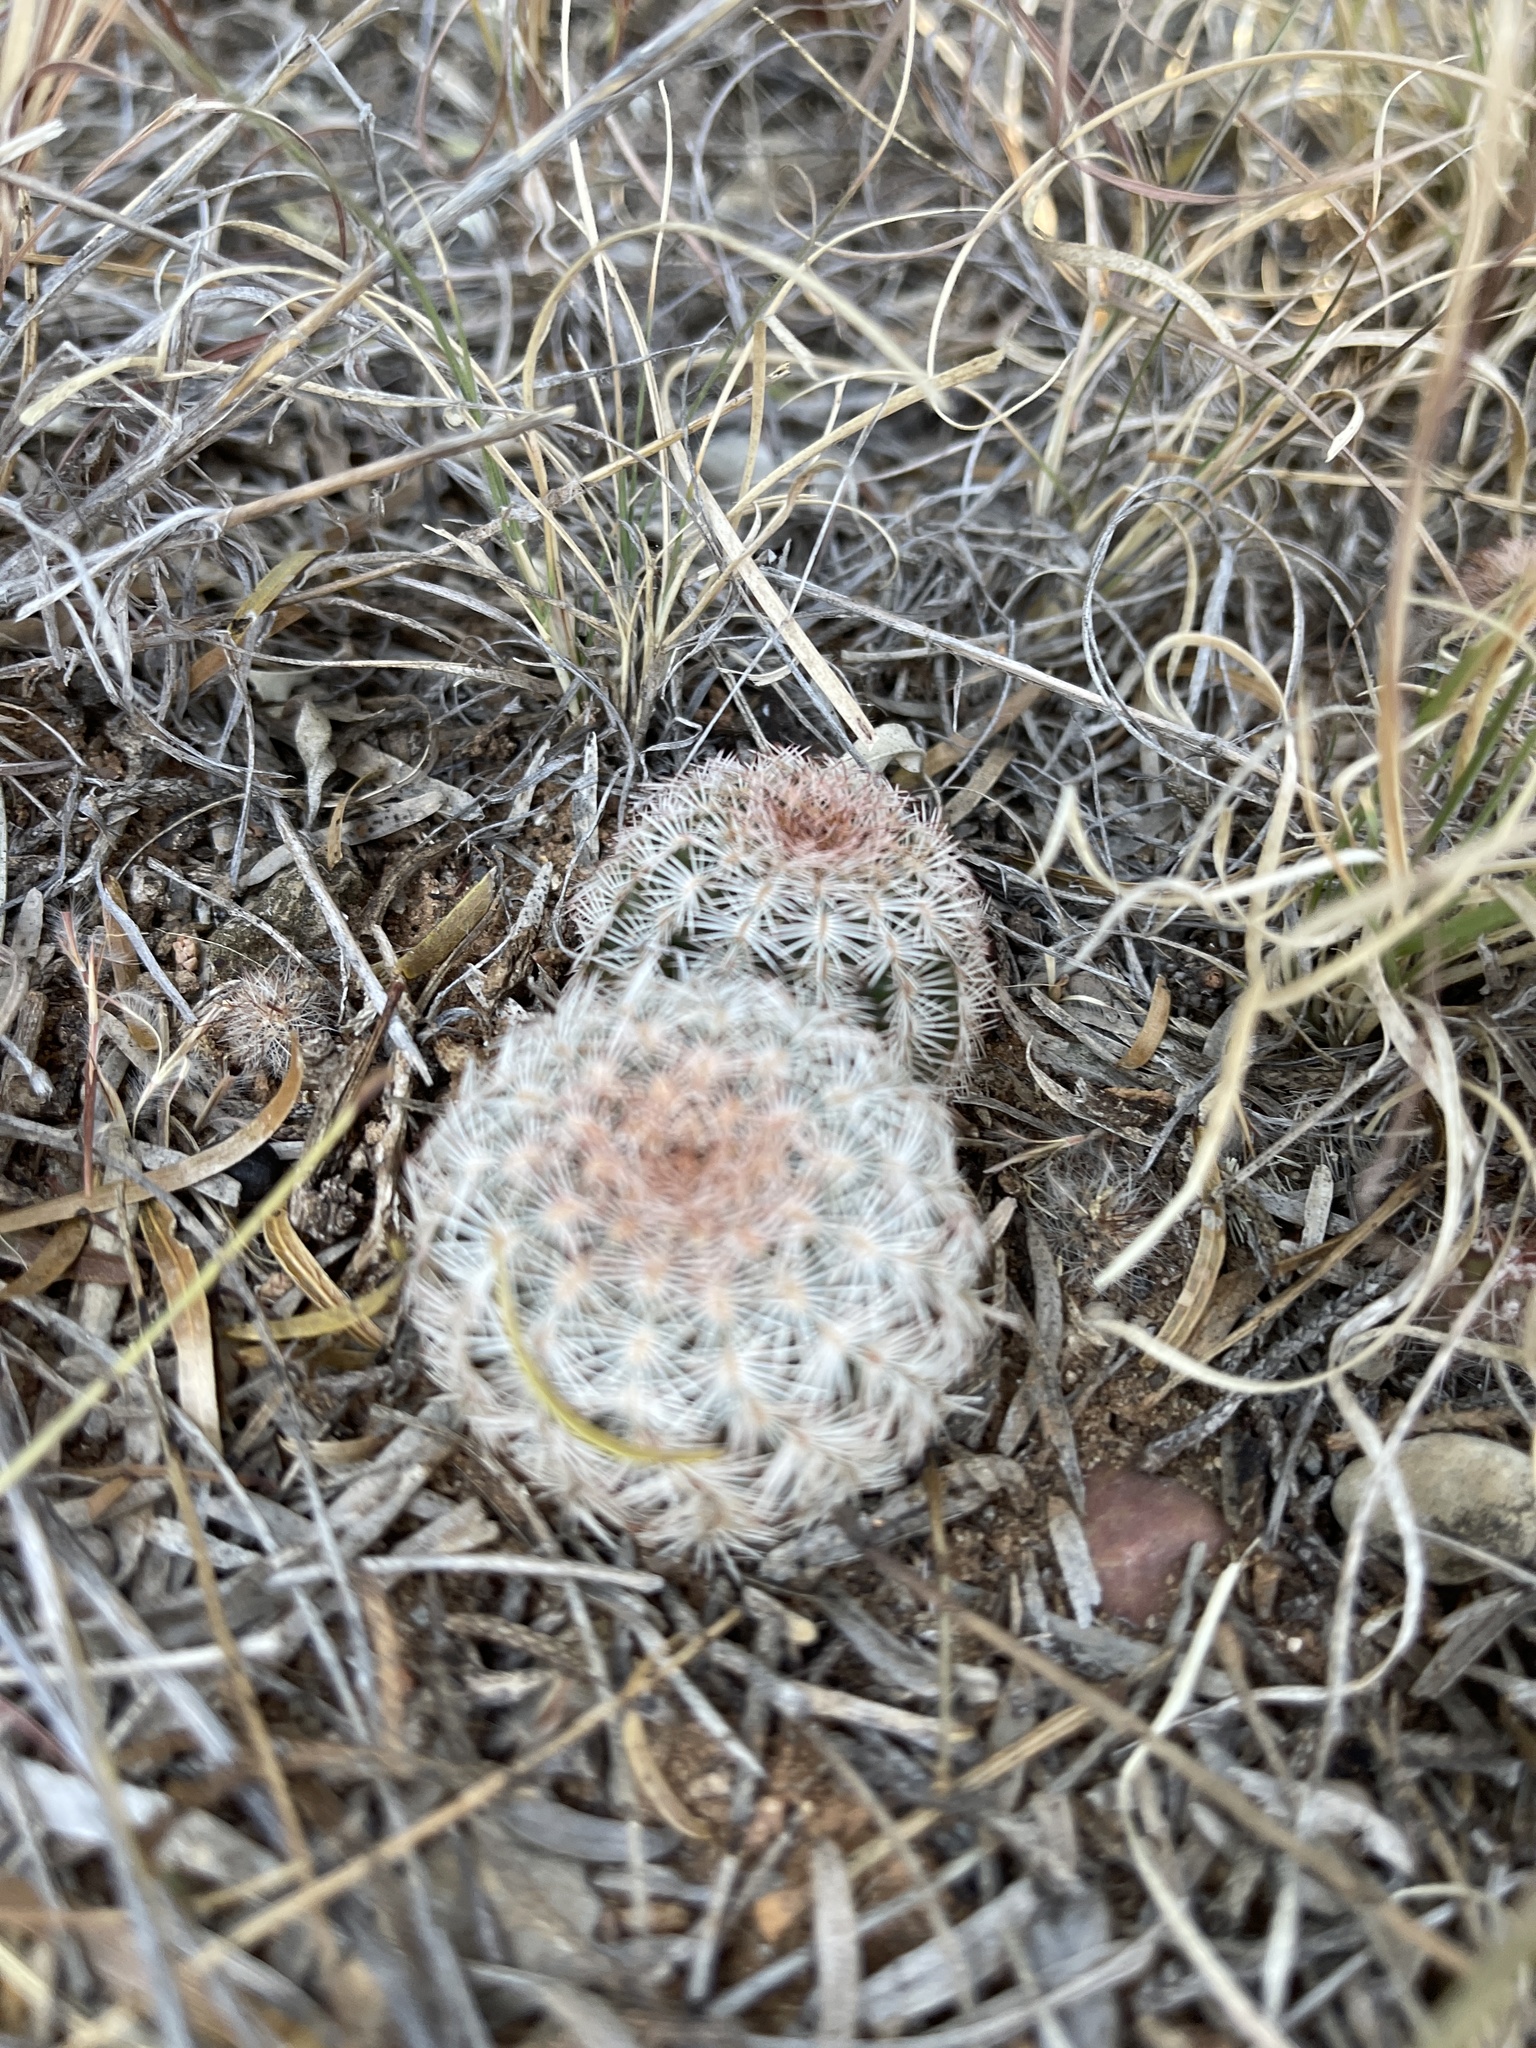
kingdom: Plantae
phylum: Tracheophyta
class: Magnoliopsida
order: Caryophyllales
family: Cactaceae
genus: Echinocereus
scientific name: Echinocereus reichenbachii
